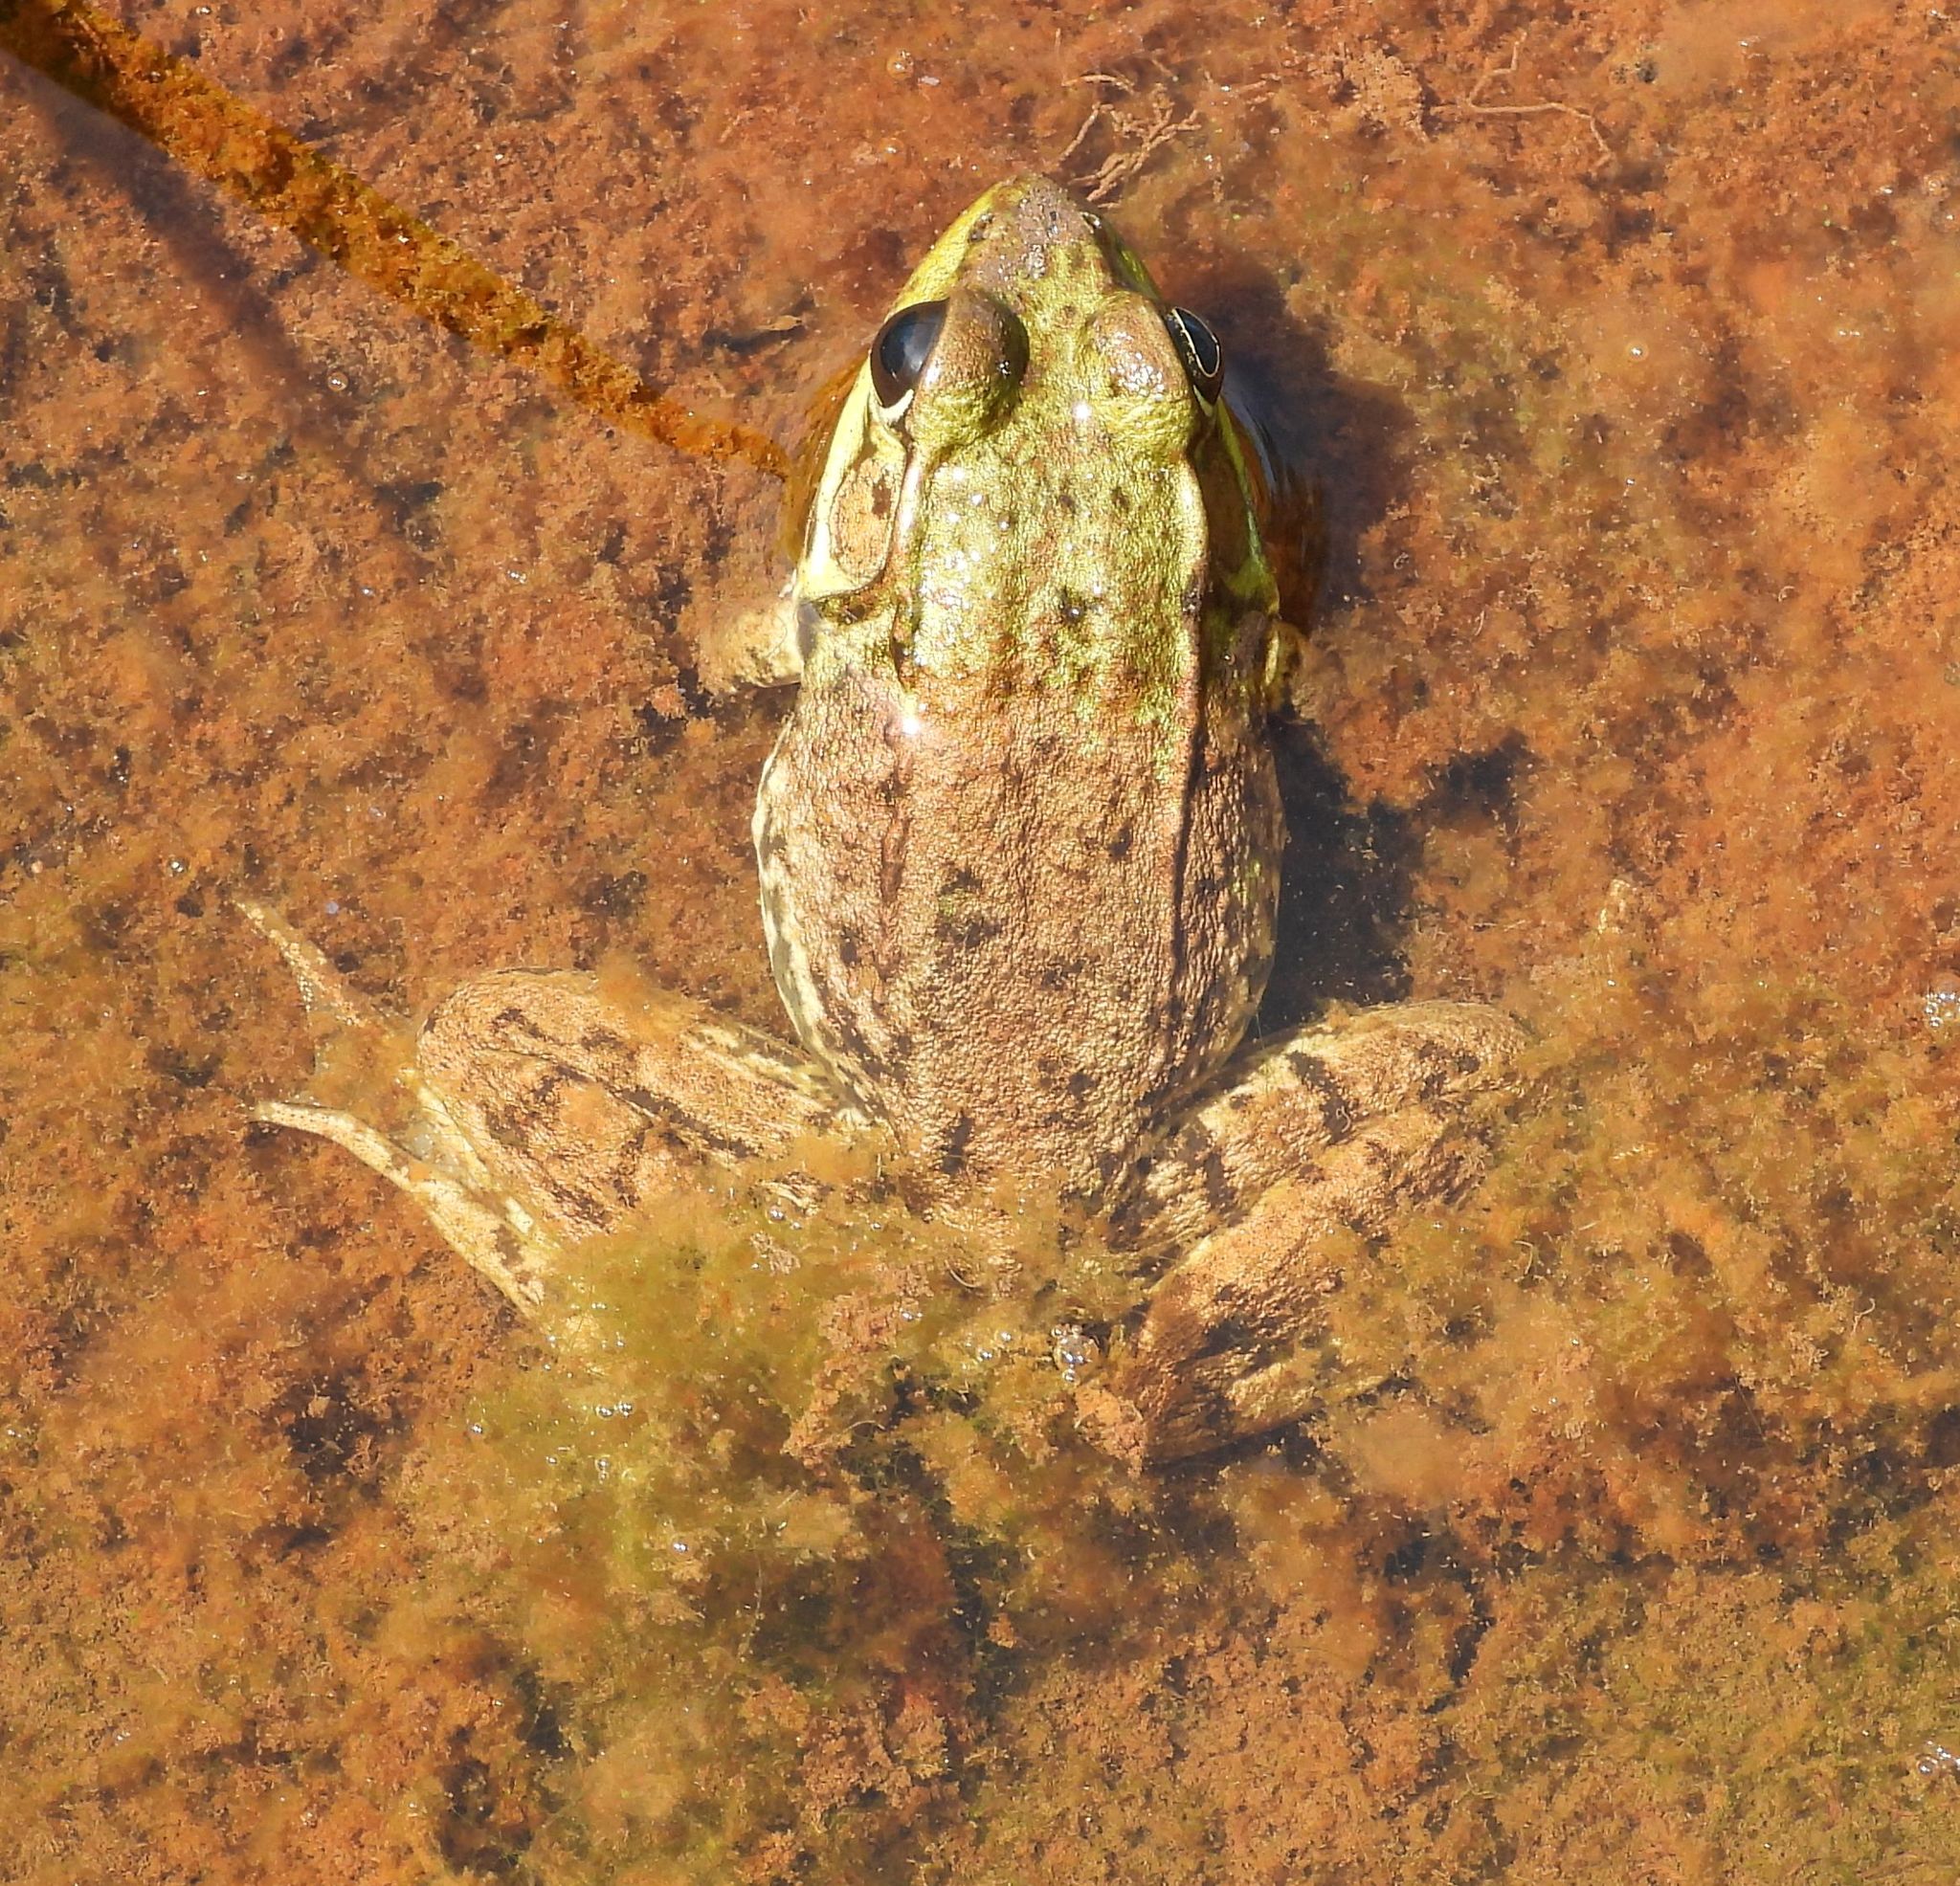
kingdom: Animalia
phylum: Chordata
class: Amphibia
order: Anura
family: Ranidae
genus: Lithobates
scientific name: Lithobates clamitans
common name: Green frog
